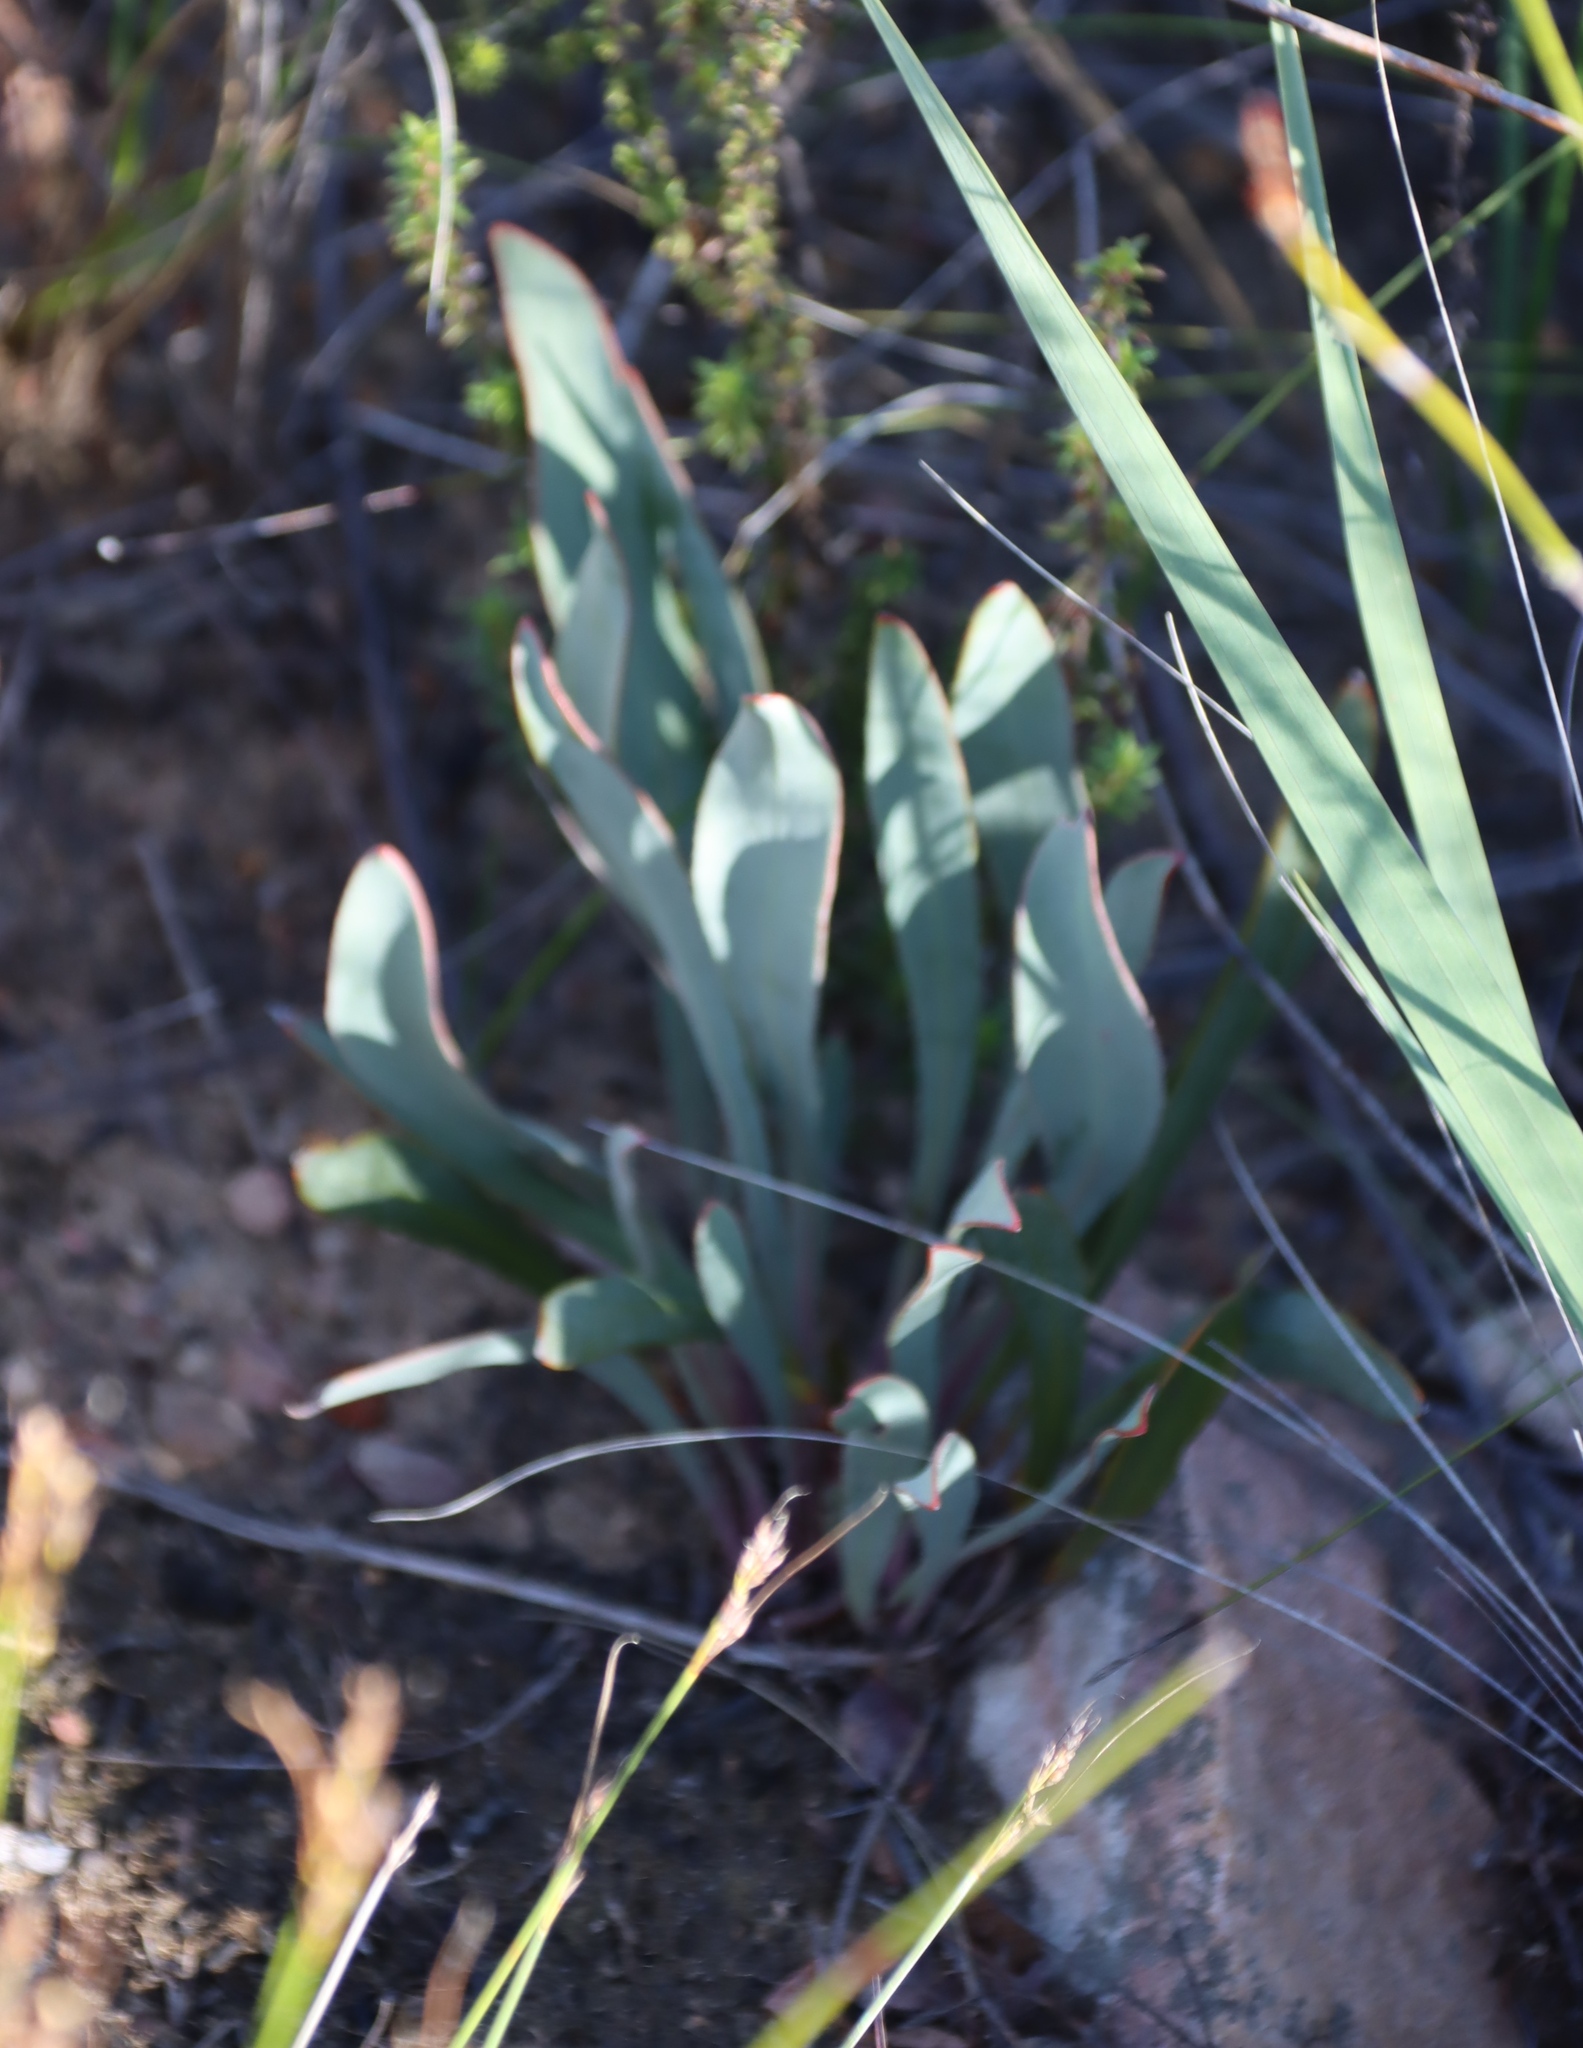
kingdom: Plantae
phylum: Tracheophyta
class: Magnoliopsida
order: Proteales
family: Proteaceae
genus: Protea
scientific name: Protea vogtsiae
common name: Kouga sugarbush
